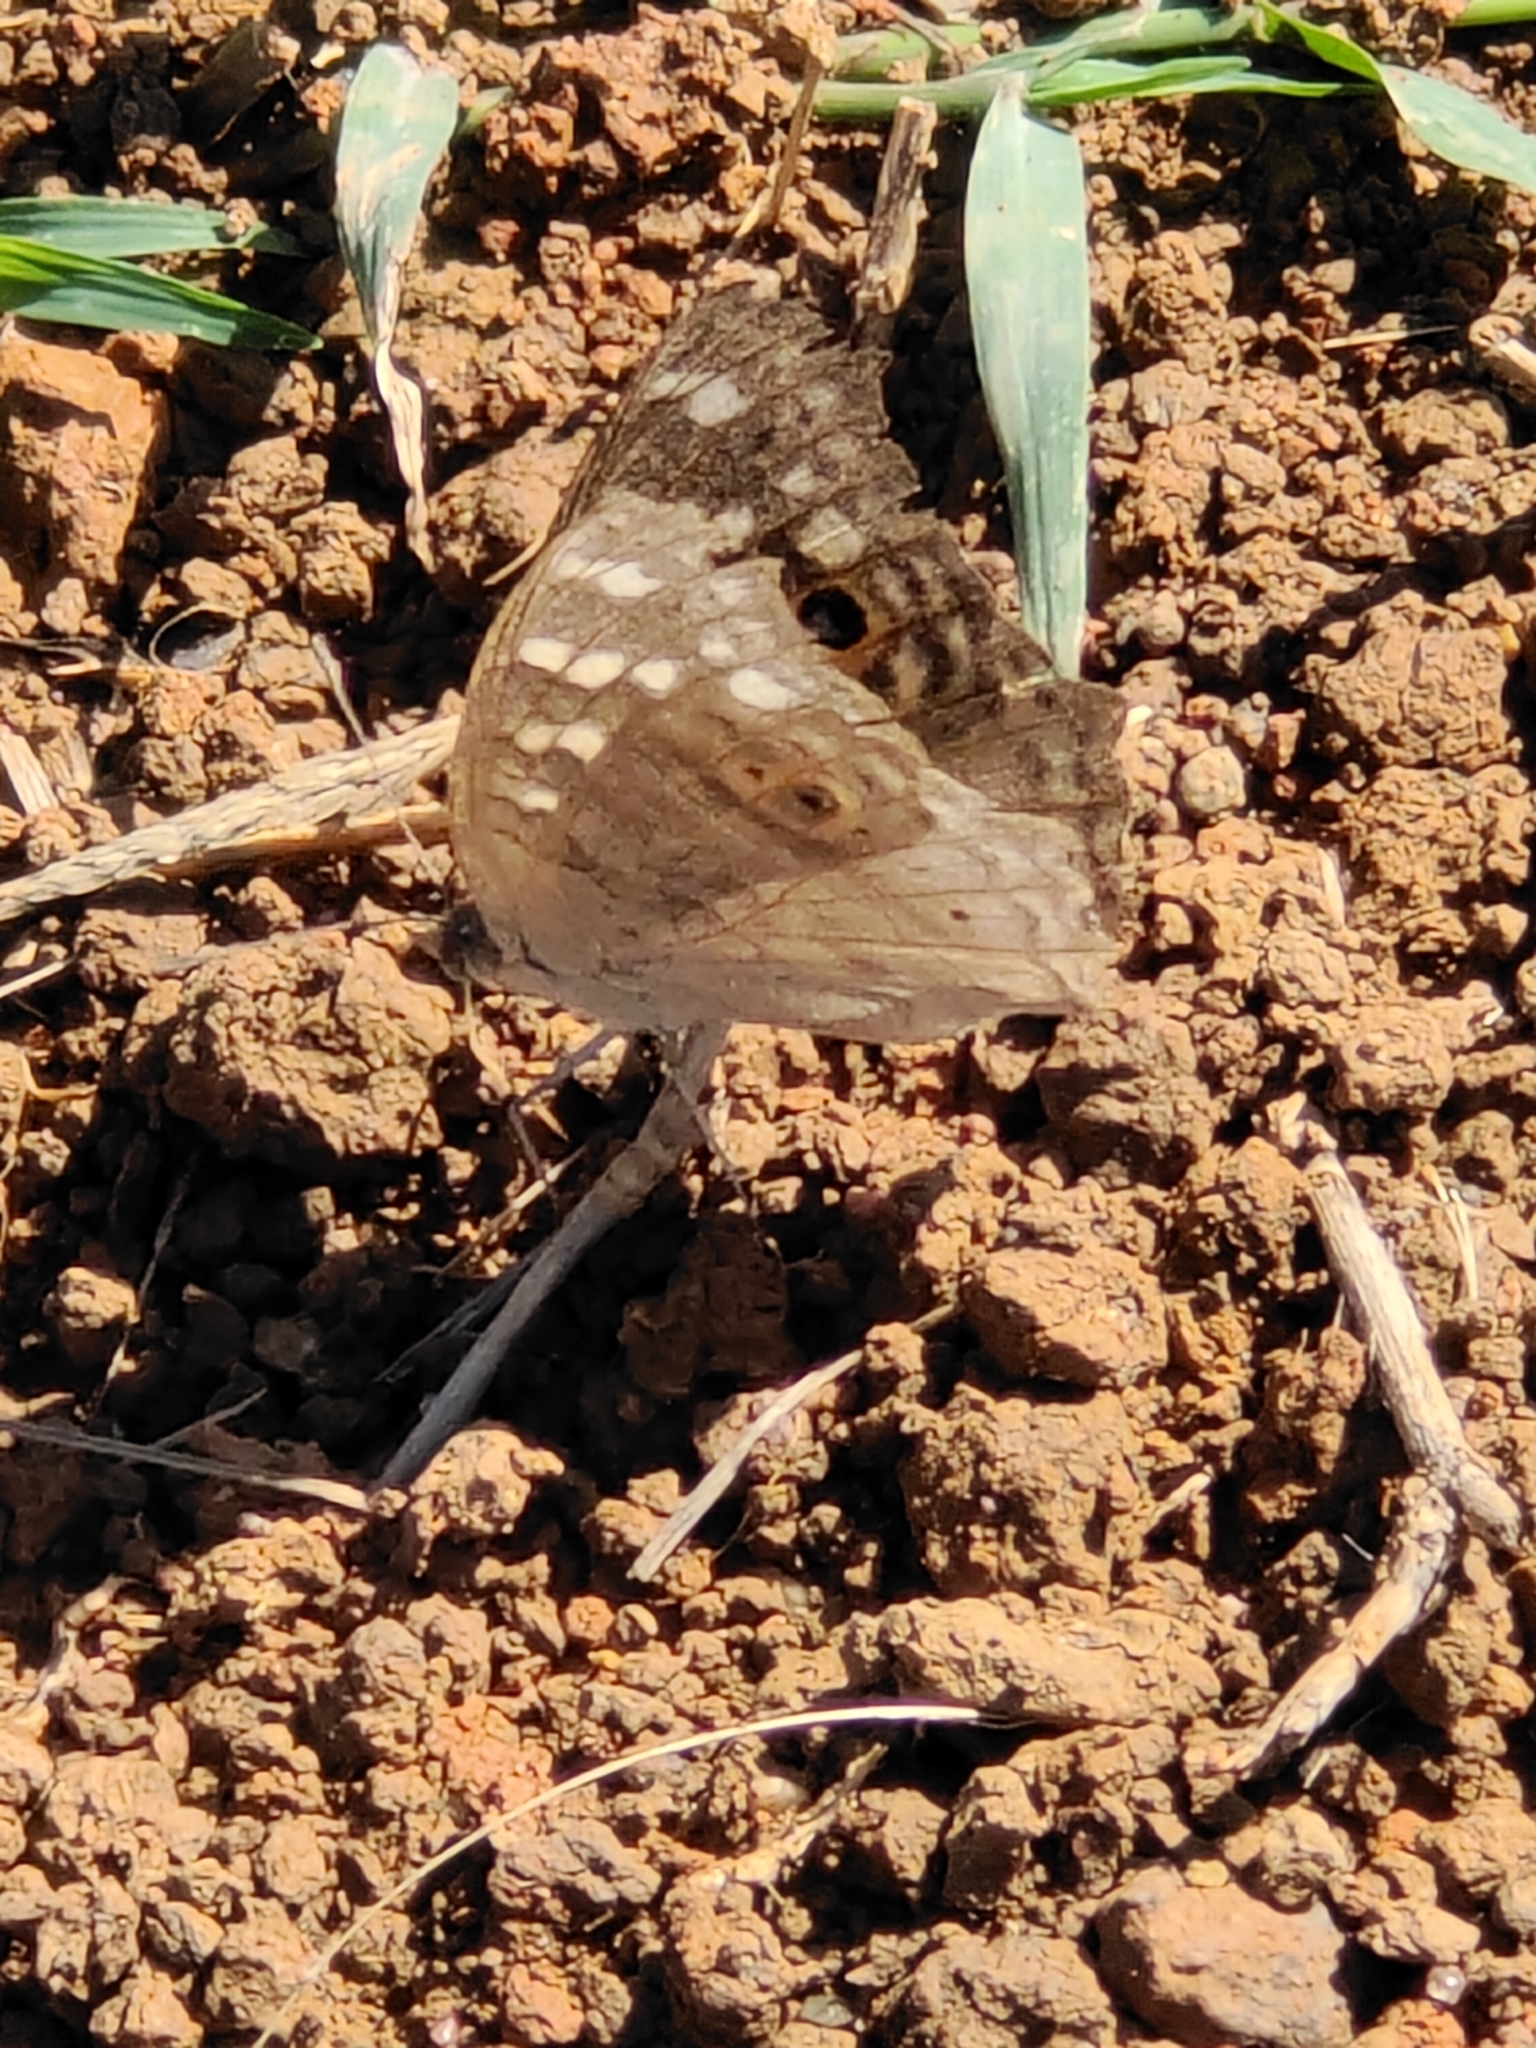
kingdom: Animalia
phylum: Arthropoda
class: Insecta
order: Lepidoptera
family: Nymphalidae
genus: Junonia
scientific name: Junonia lemonias
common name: Lemon pansy
